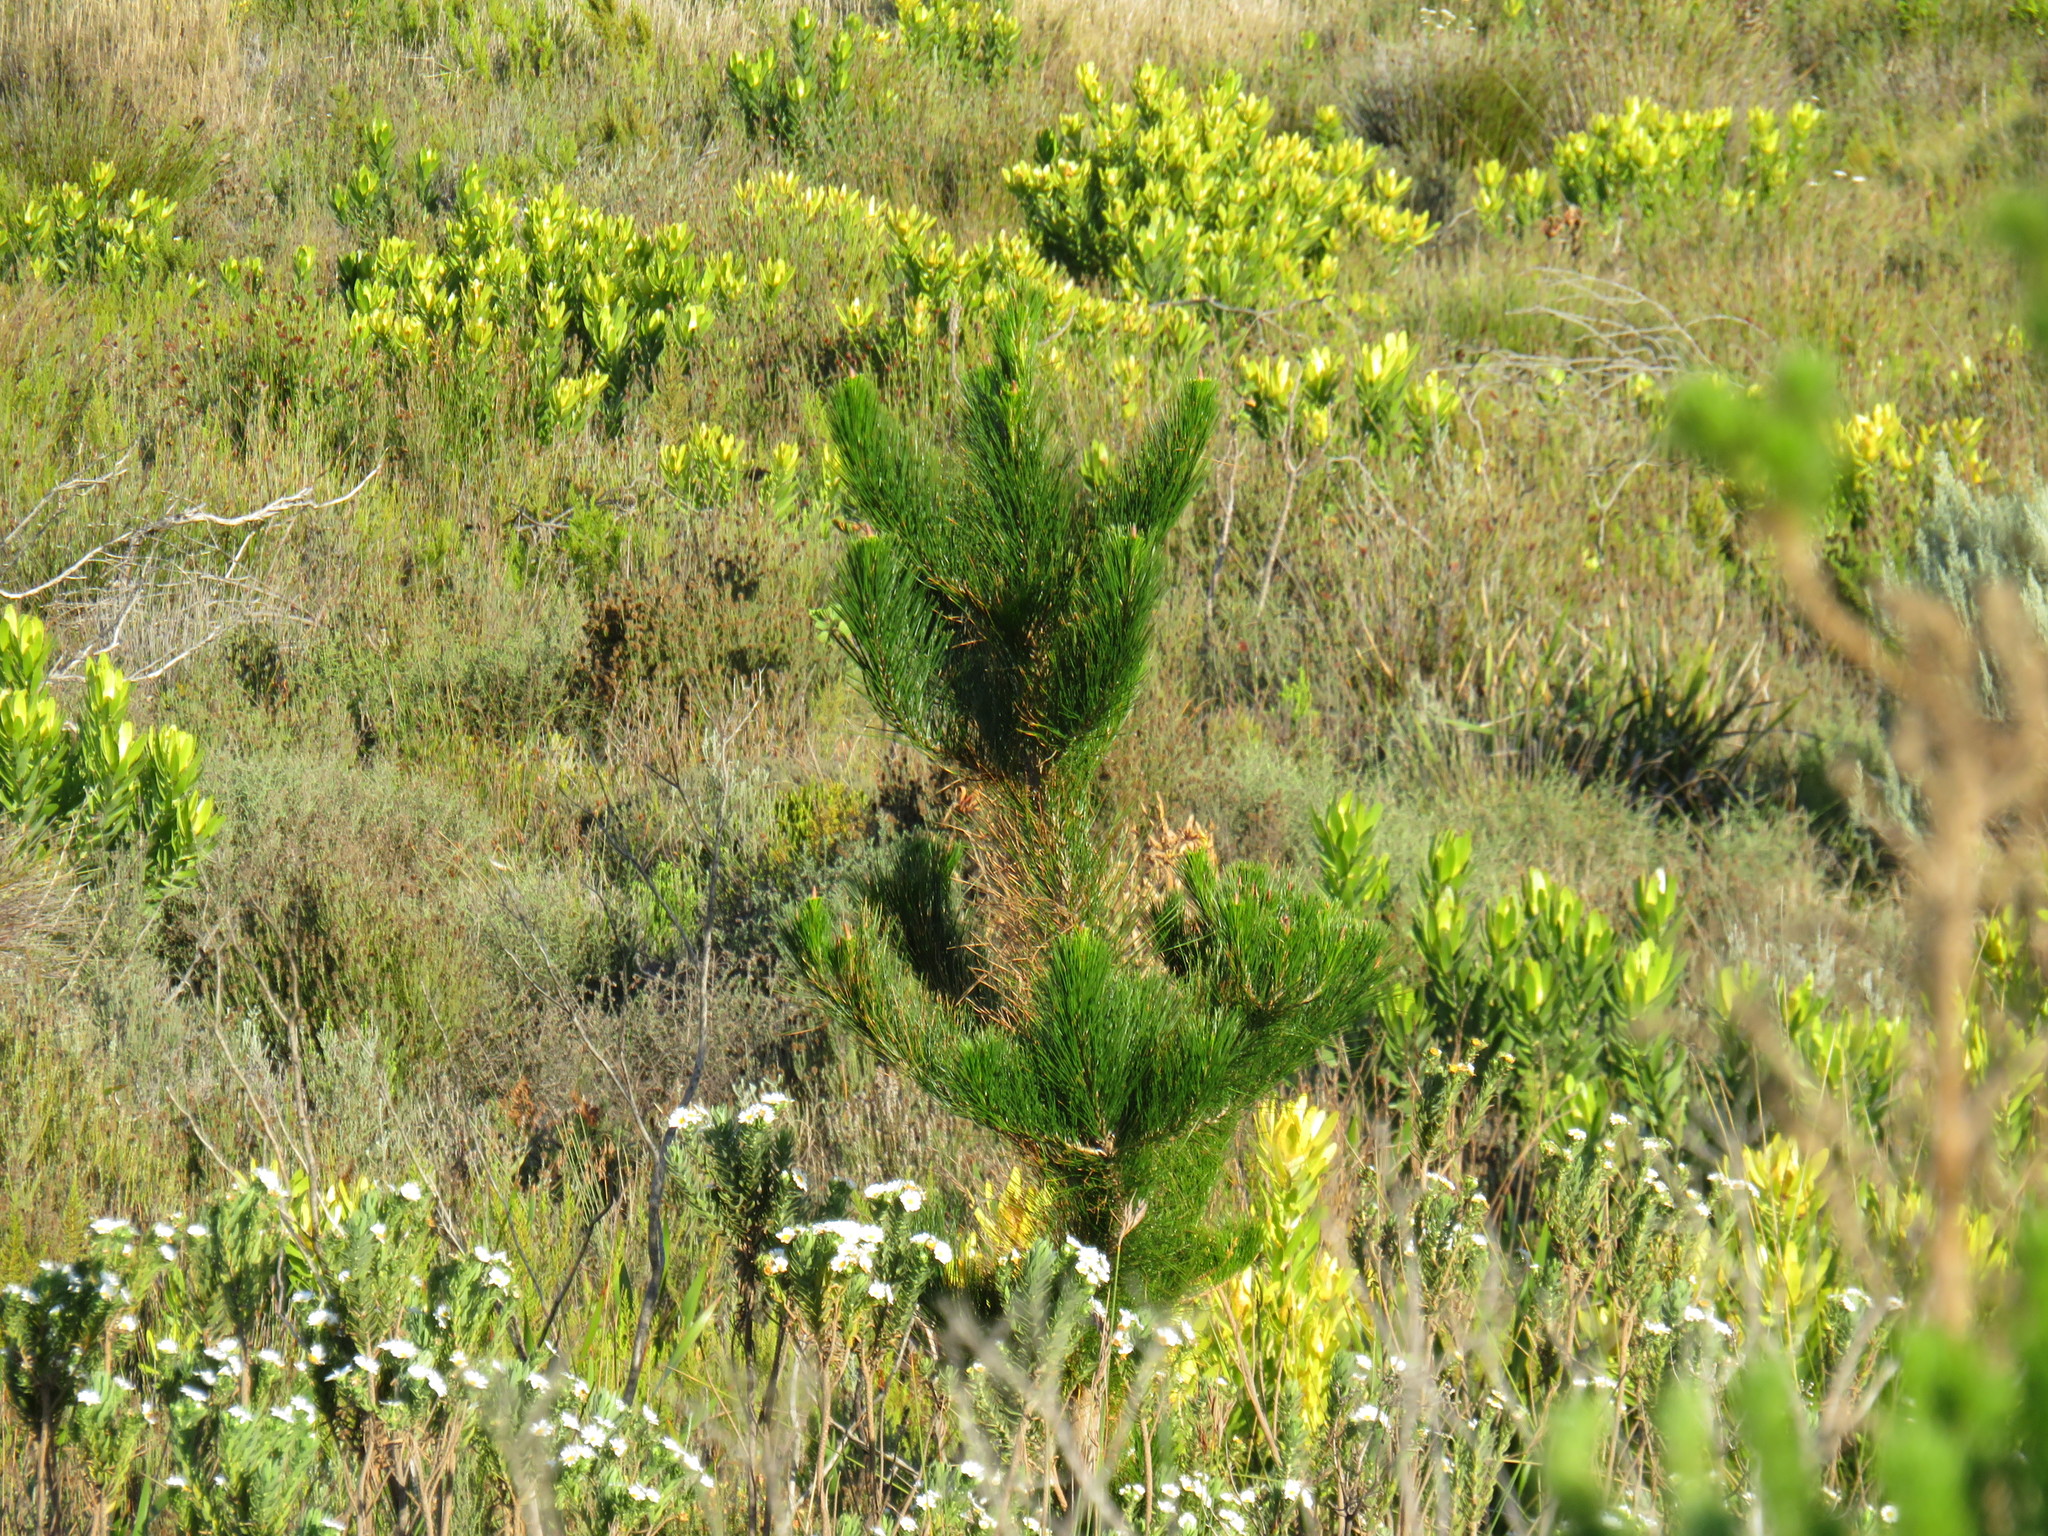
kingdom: Plantae
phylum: Tracheophyta
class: Pinopsida
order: Pinales
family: Pinaceae
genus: Pinus
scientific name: Pinus radiata
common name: Monterey pine
